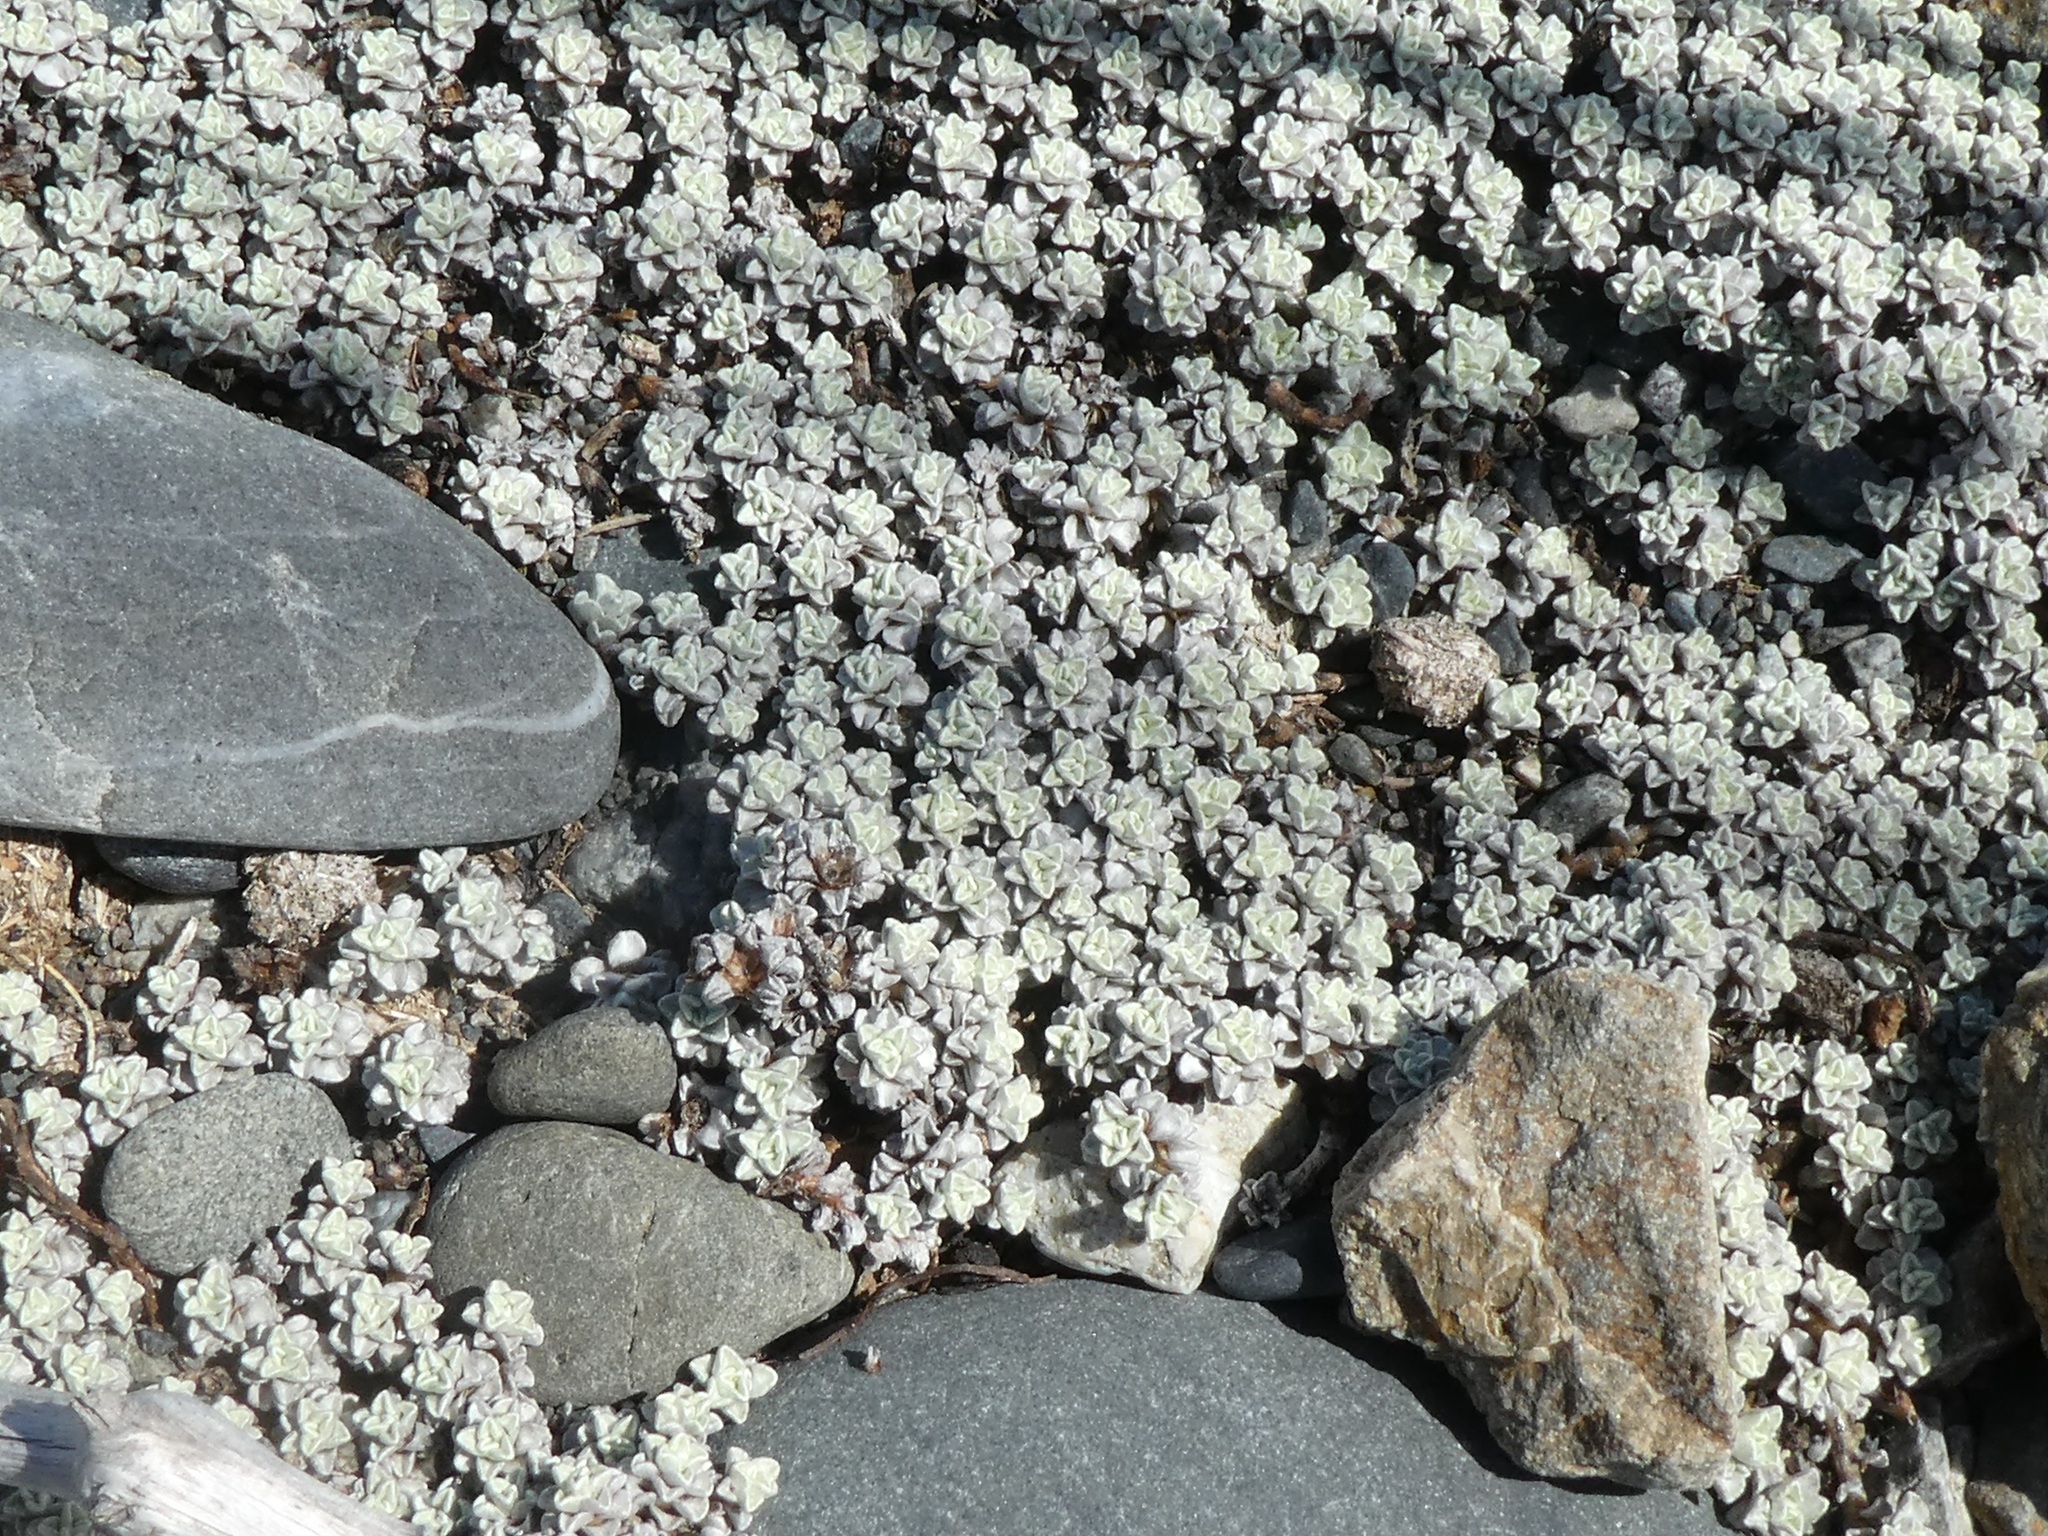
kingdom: Plantae
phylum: Tracheophyta
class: Magnoliopsida
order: Asterales
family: Asteraceae
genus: Raoulia
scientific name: Raoulia hookeri
